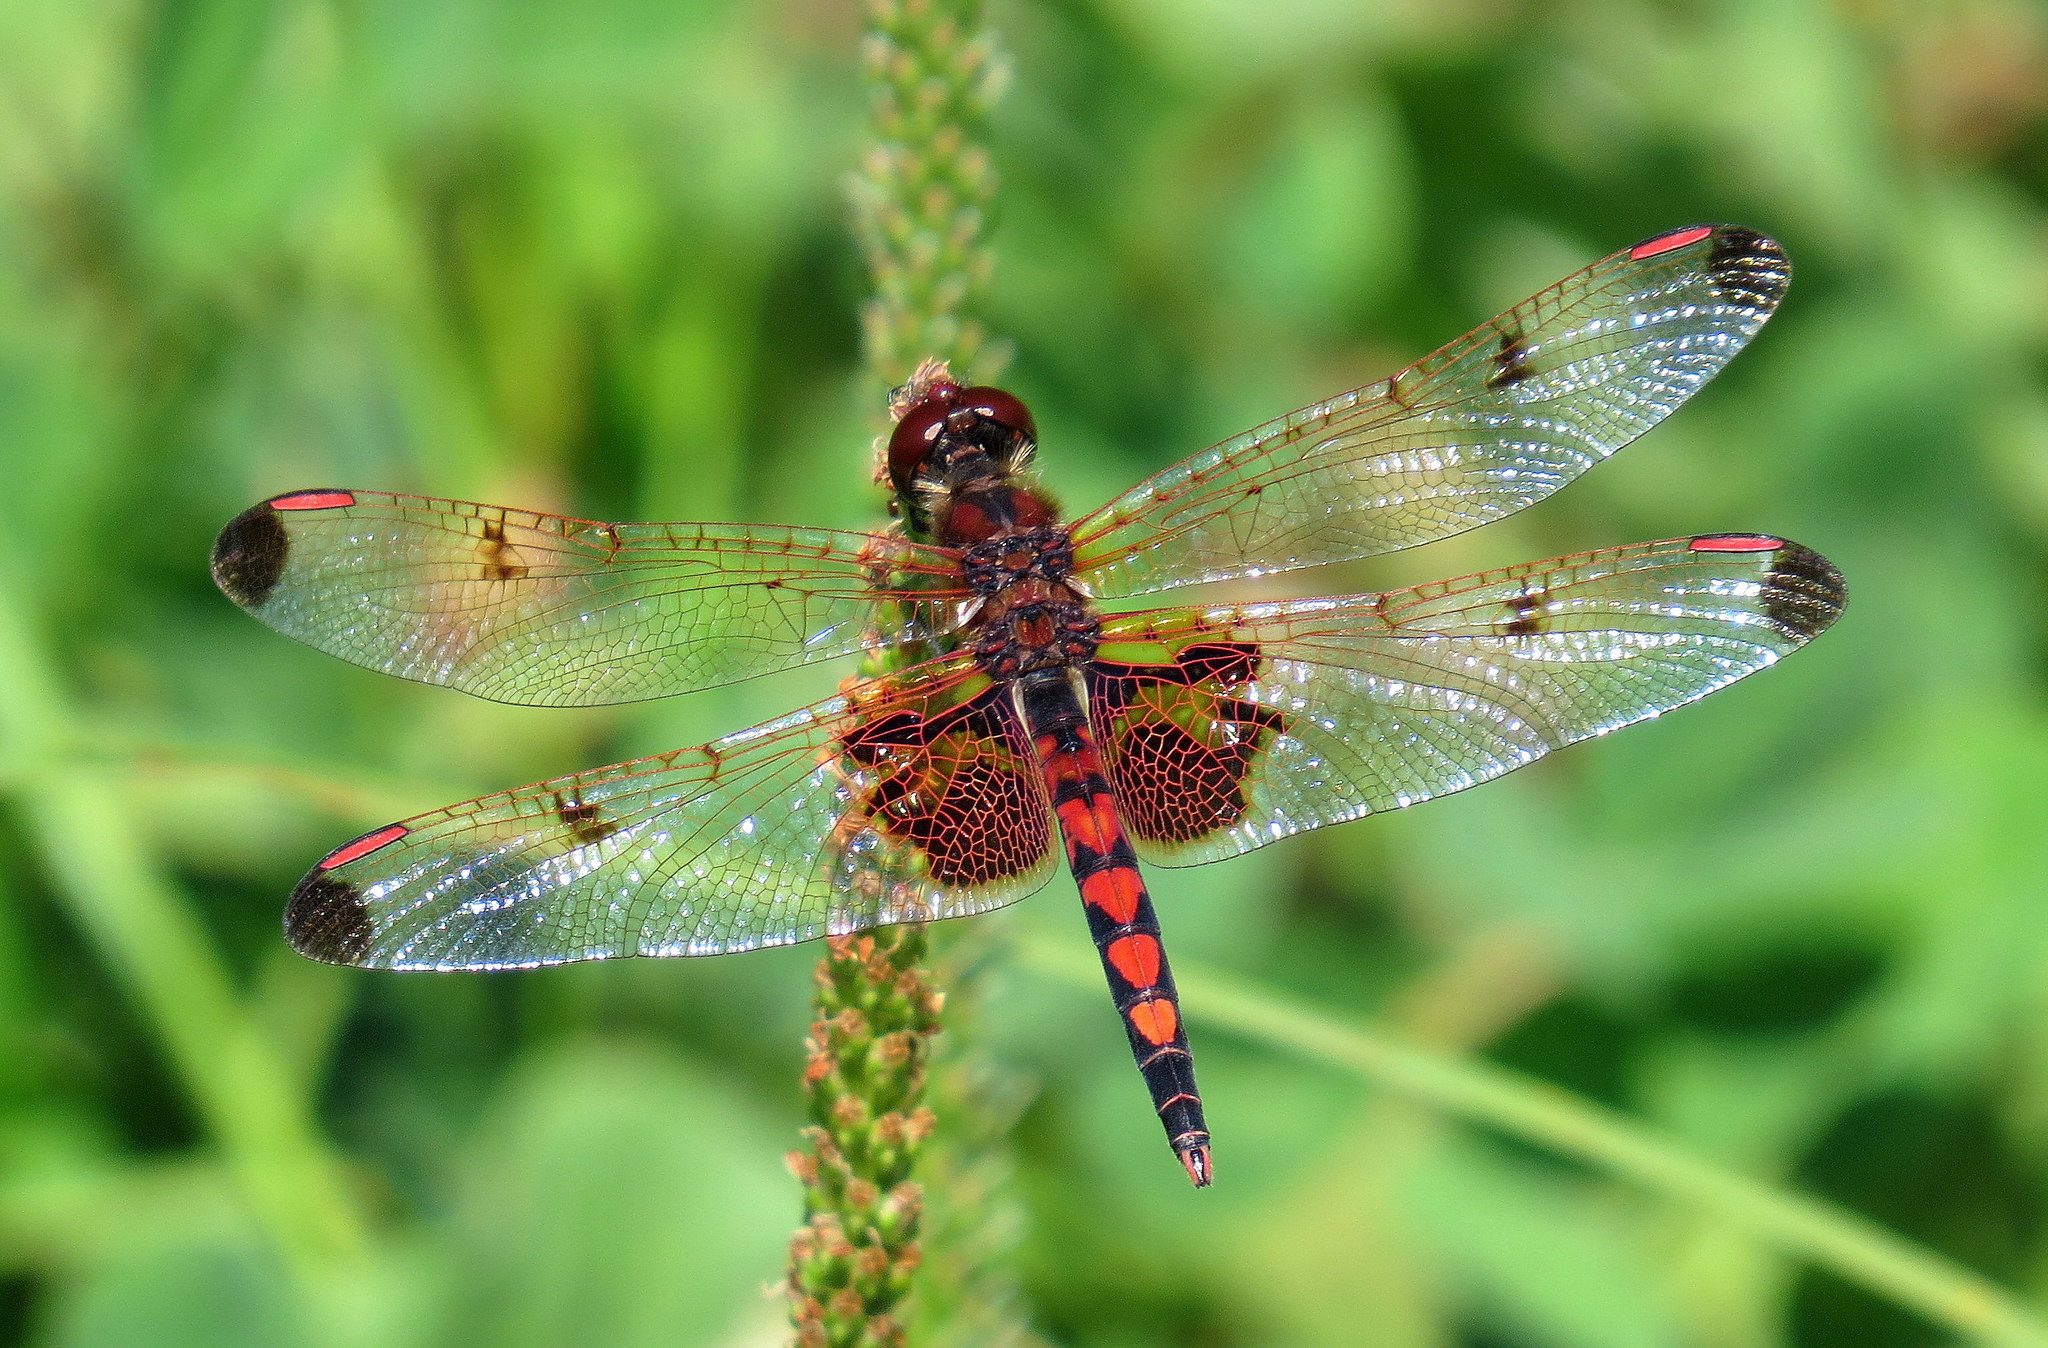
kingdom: Animalia
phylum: Arthropoda
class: Insecta
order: Odonata
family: Libellulidae
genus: Celithemis
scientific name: Celithemis elisa
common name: Calico pennant
